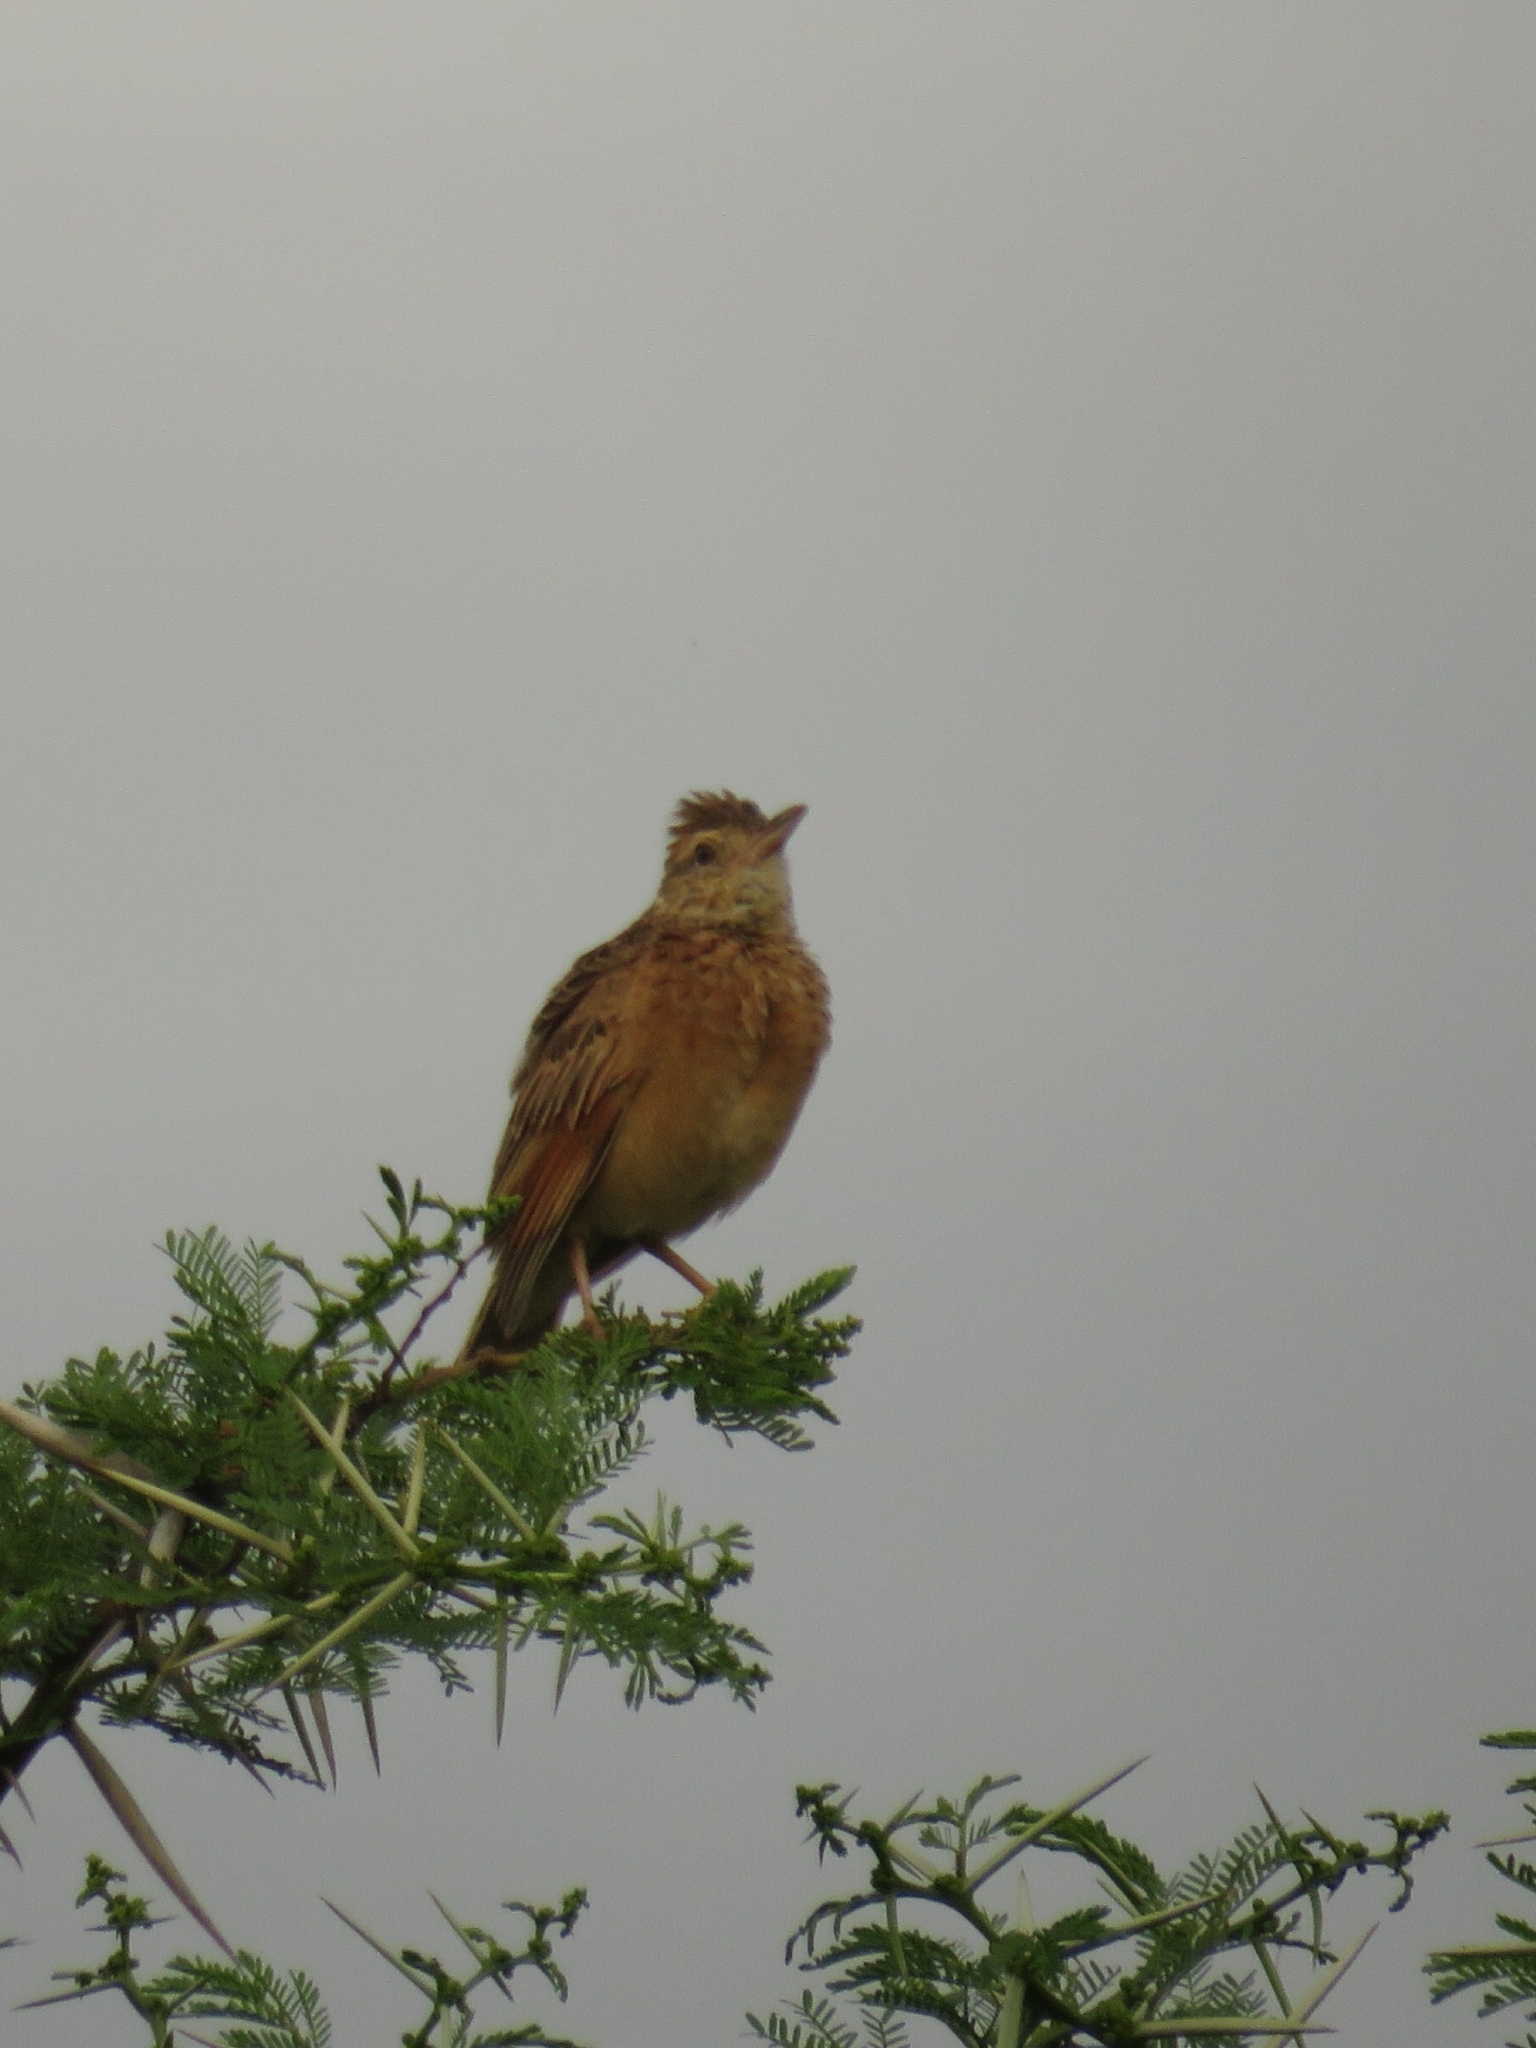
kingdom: Animalia
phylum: Chordata
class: Aves
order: Passeriformes
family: Alaudidae
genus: Mirafra
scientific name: Mirafra africana
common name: Rufous-naped lark
